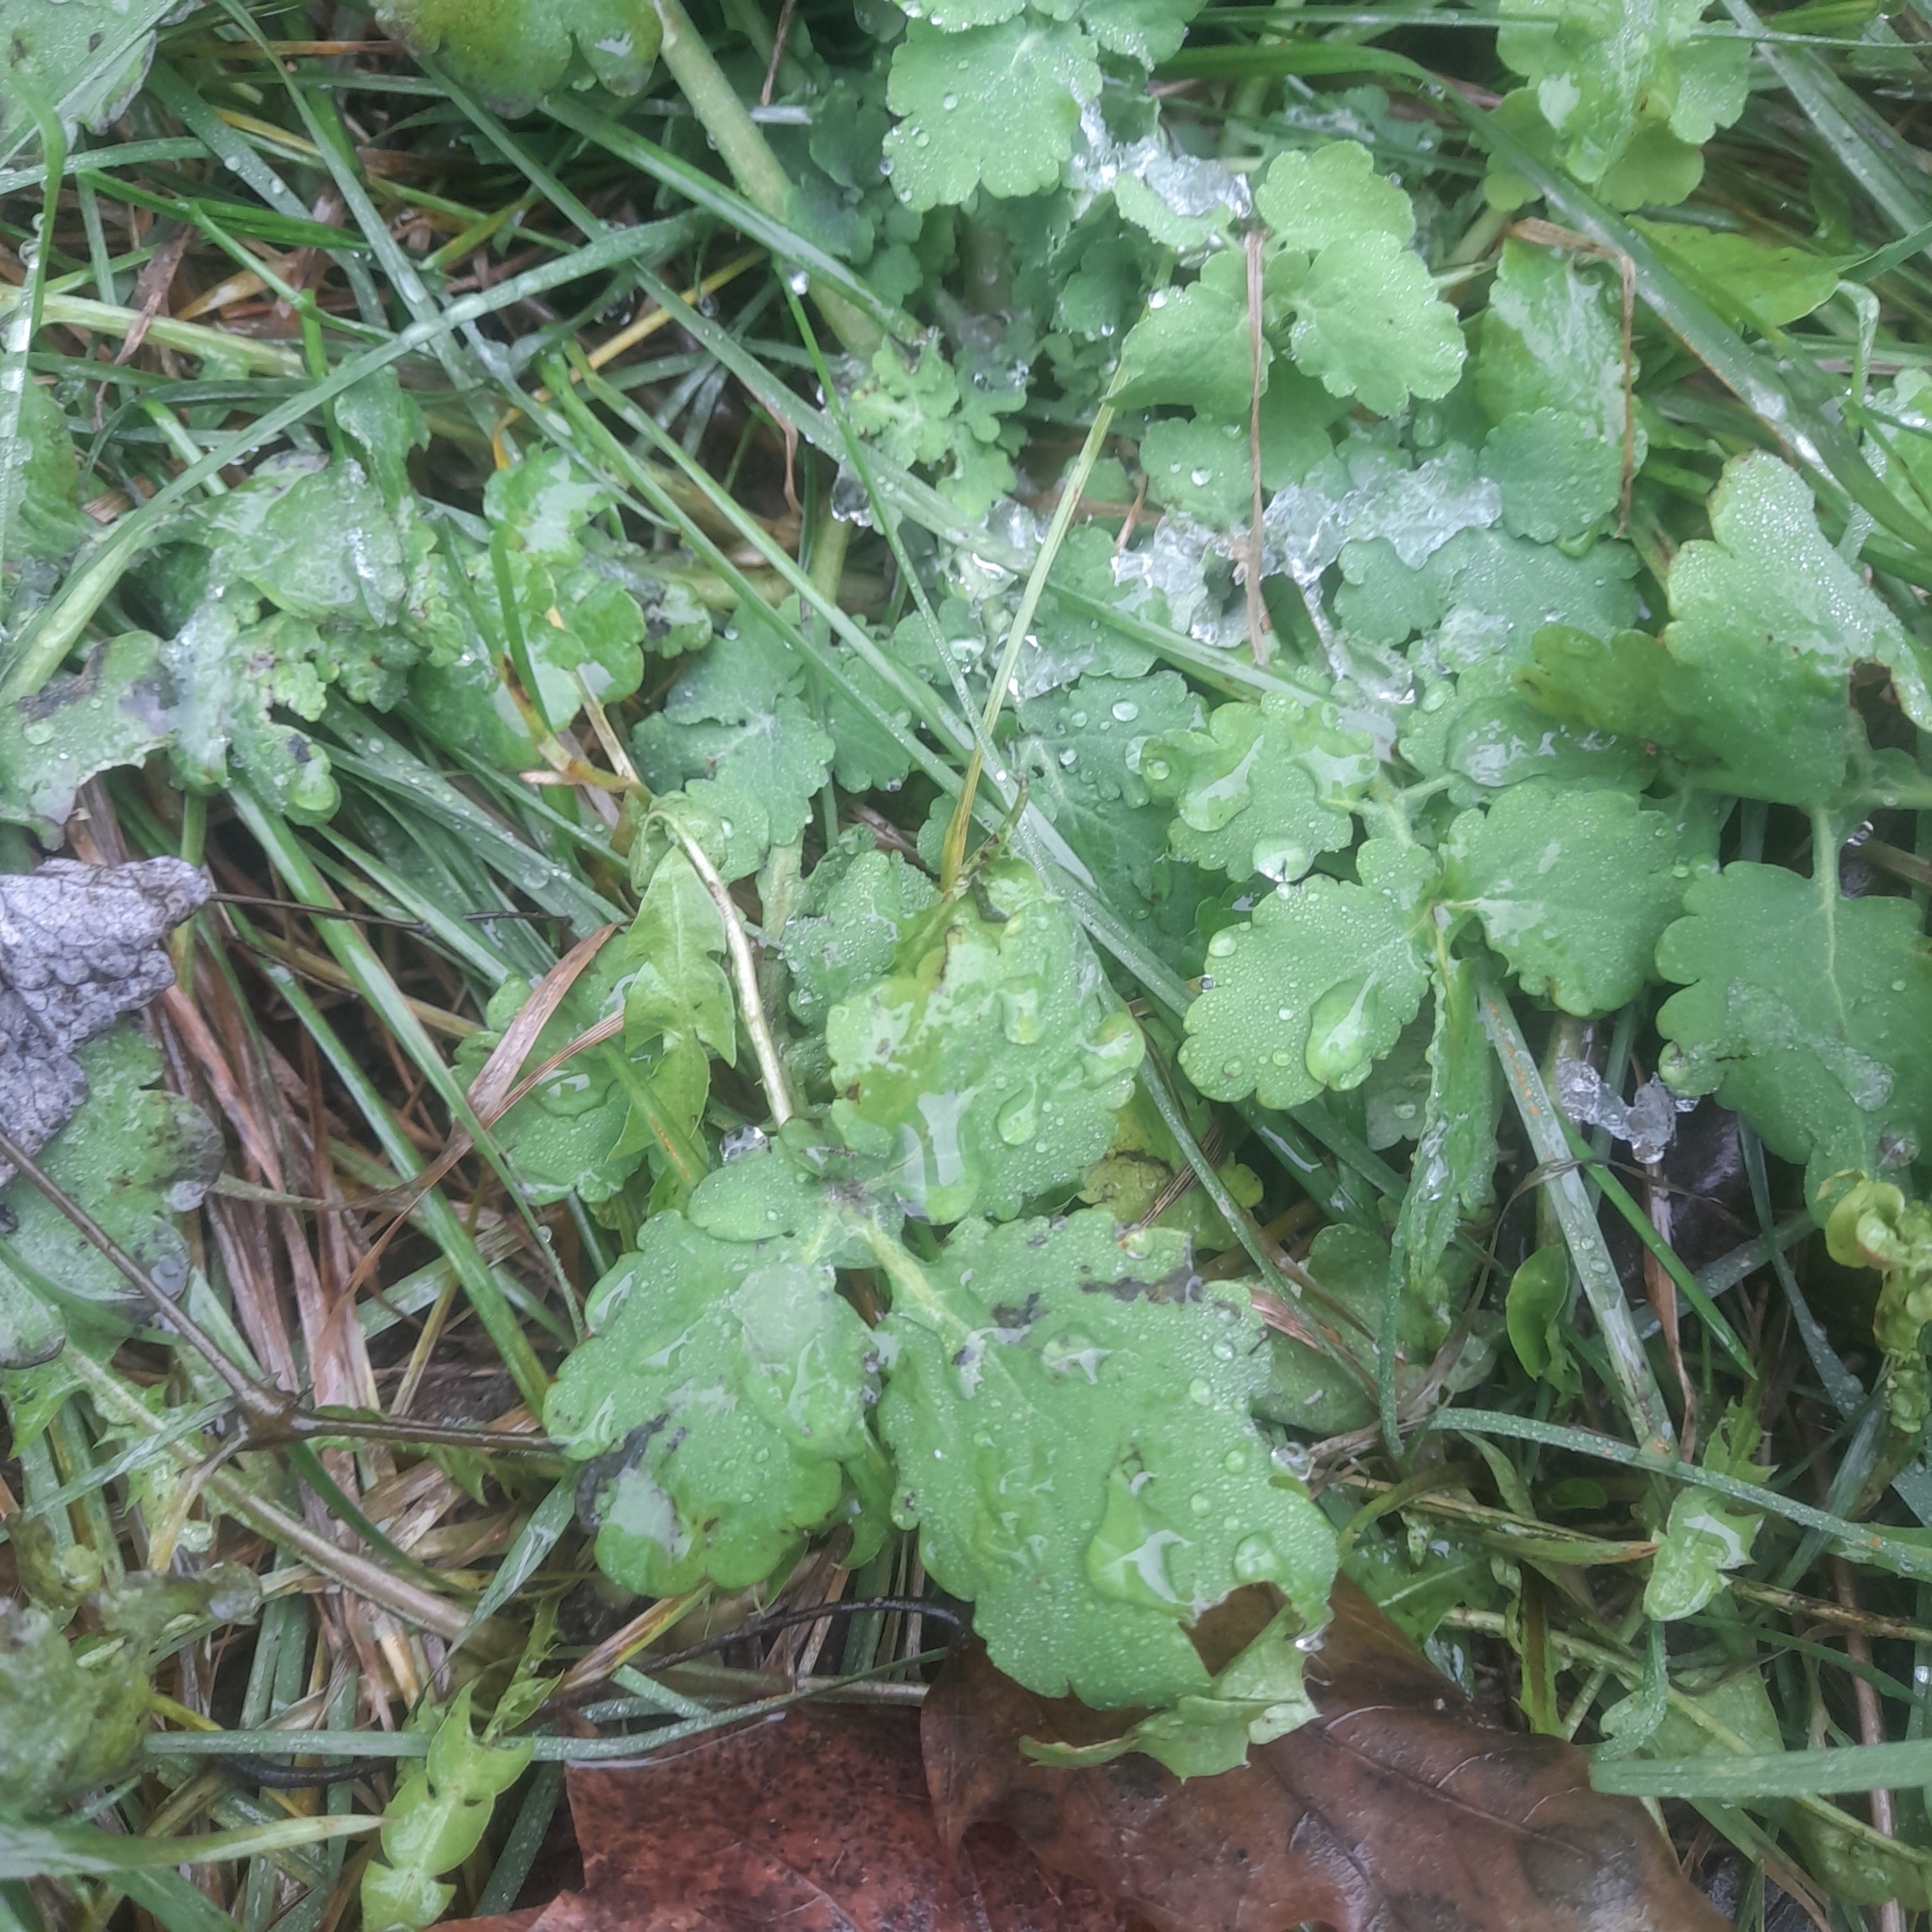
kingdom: Plantae
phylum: Tracheophyta
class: Magnoliopsida
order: Ranunculales
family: Papaveraceae
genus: Chelidonium
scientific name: Chelidonium majus
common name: Greater celandine
